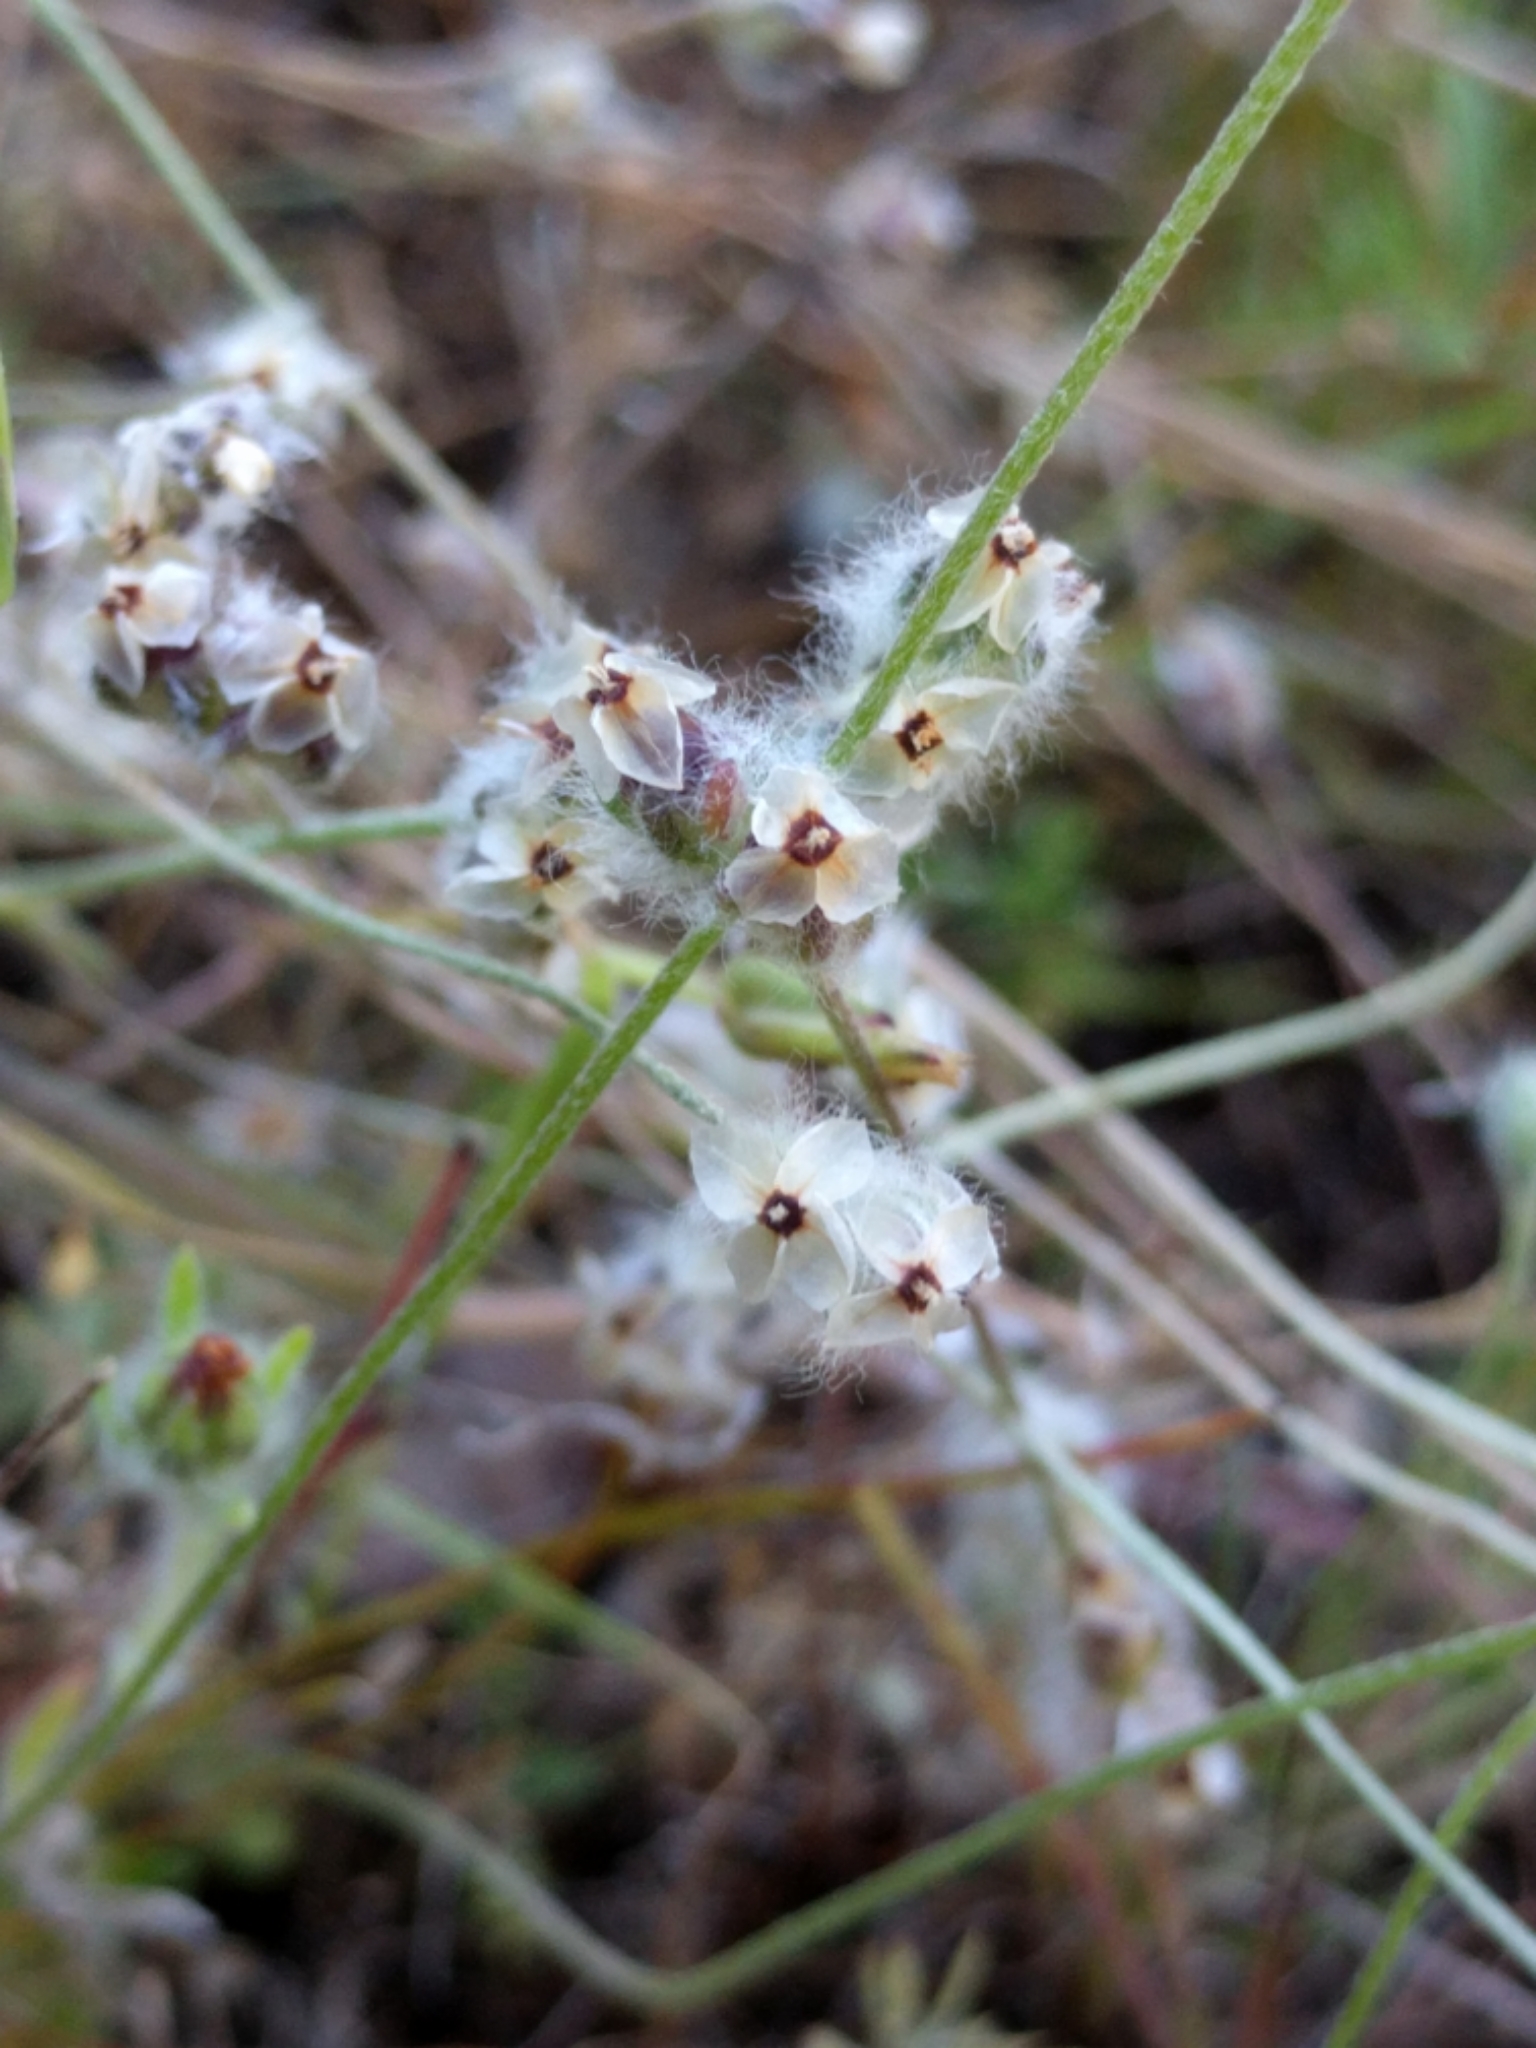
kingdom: Plantae
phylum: Tracheophyta
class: Magnoliopsida
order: Lamiales
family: Plantaginaceae
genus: Plantago
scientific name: Plantago erecta
